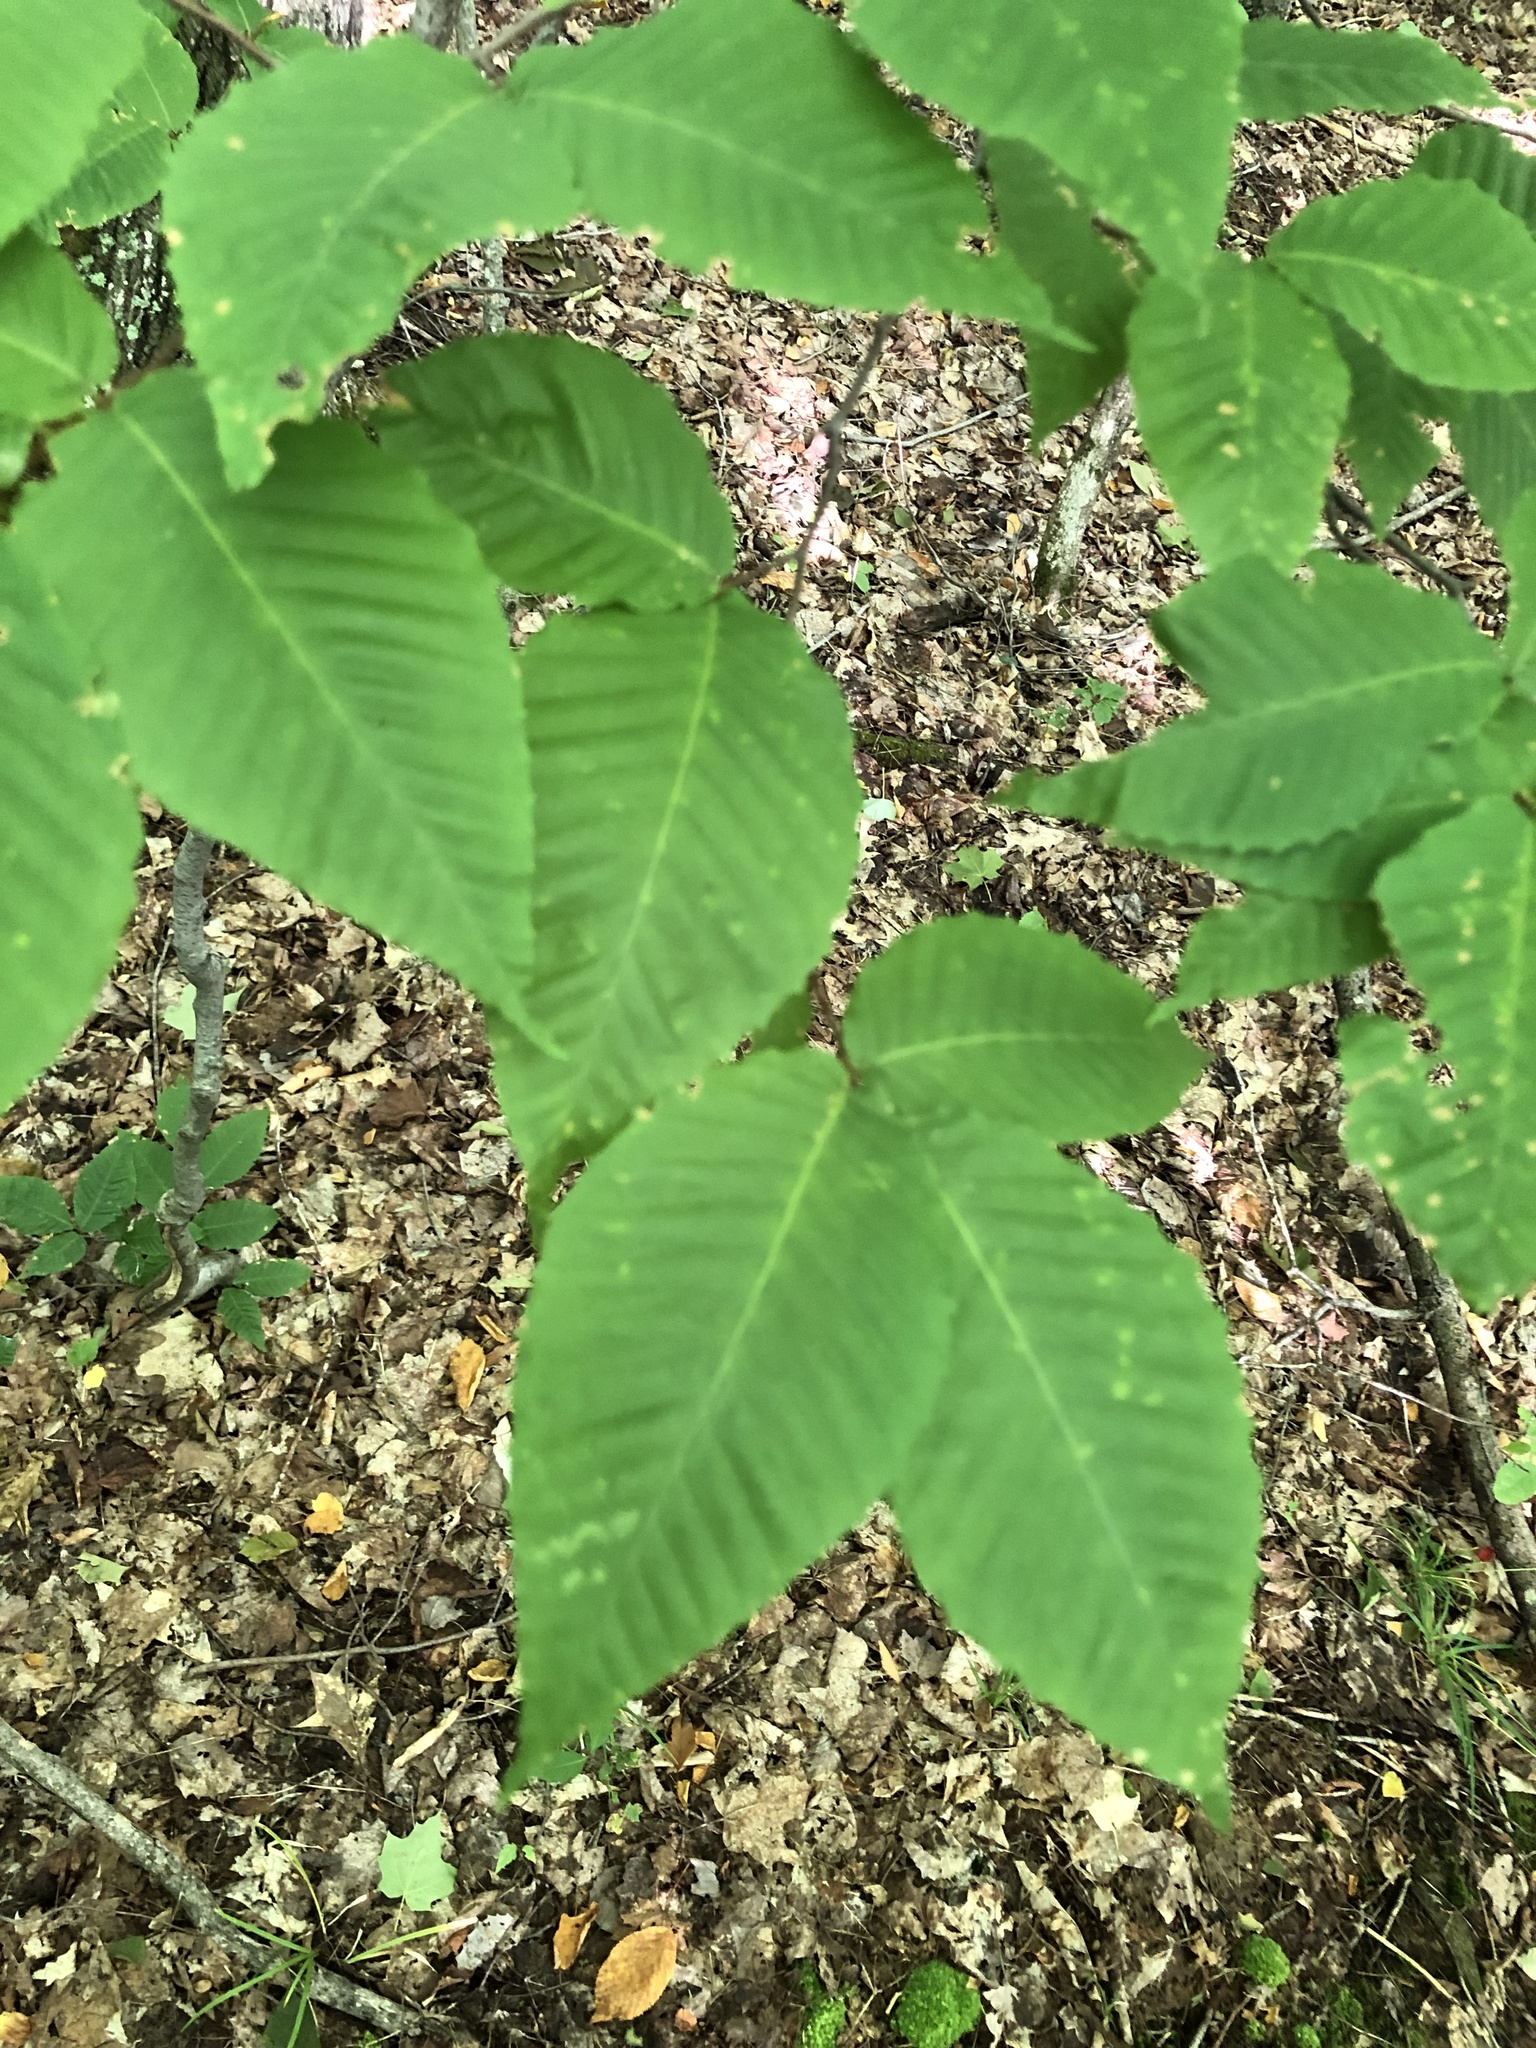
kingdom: Plantae
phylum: Tracheophyta
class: Magnoliopsida
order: Fagales
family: Fagaceae
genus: Fagus
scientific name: Fagus grandifolia
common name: American beech
